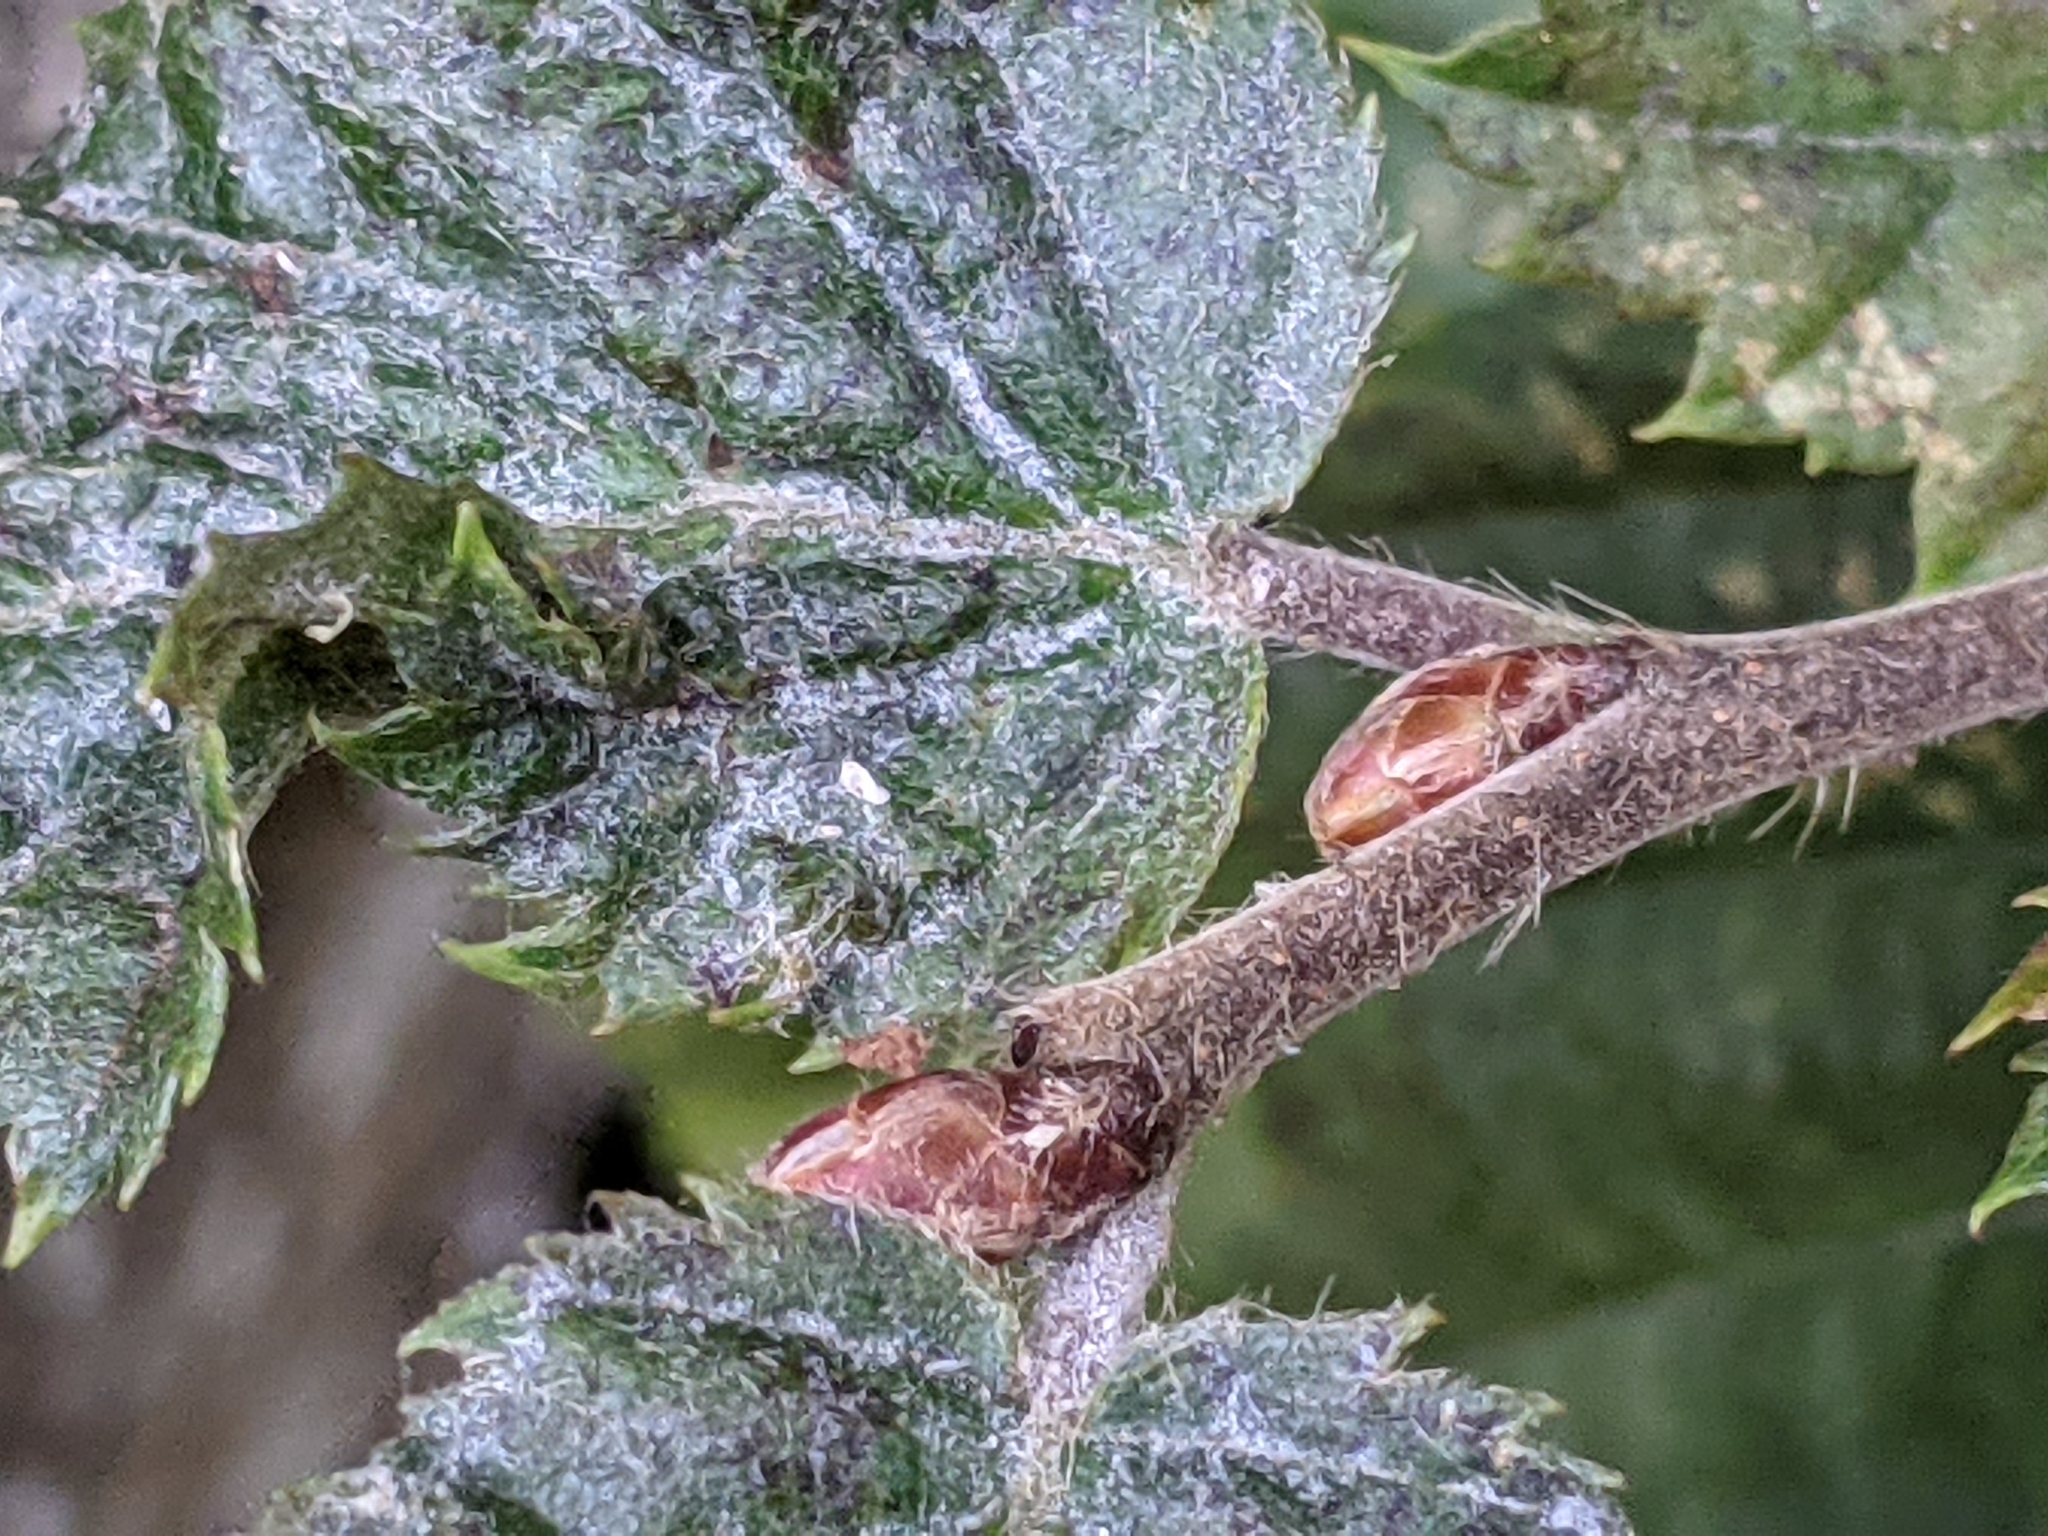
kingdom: Plantae
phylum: Tracheophyta
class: Magnoliopsida
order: Fagales
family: Betulaceae
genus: Carpinus
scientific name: Carpinus betulus
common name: Hornbeam
